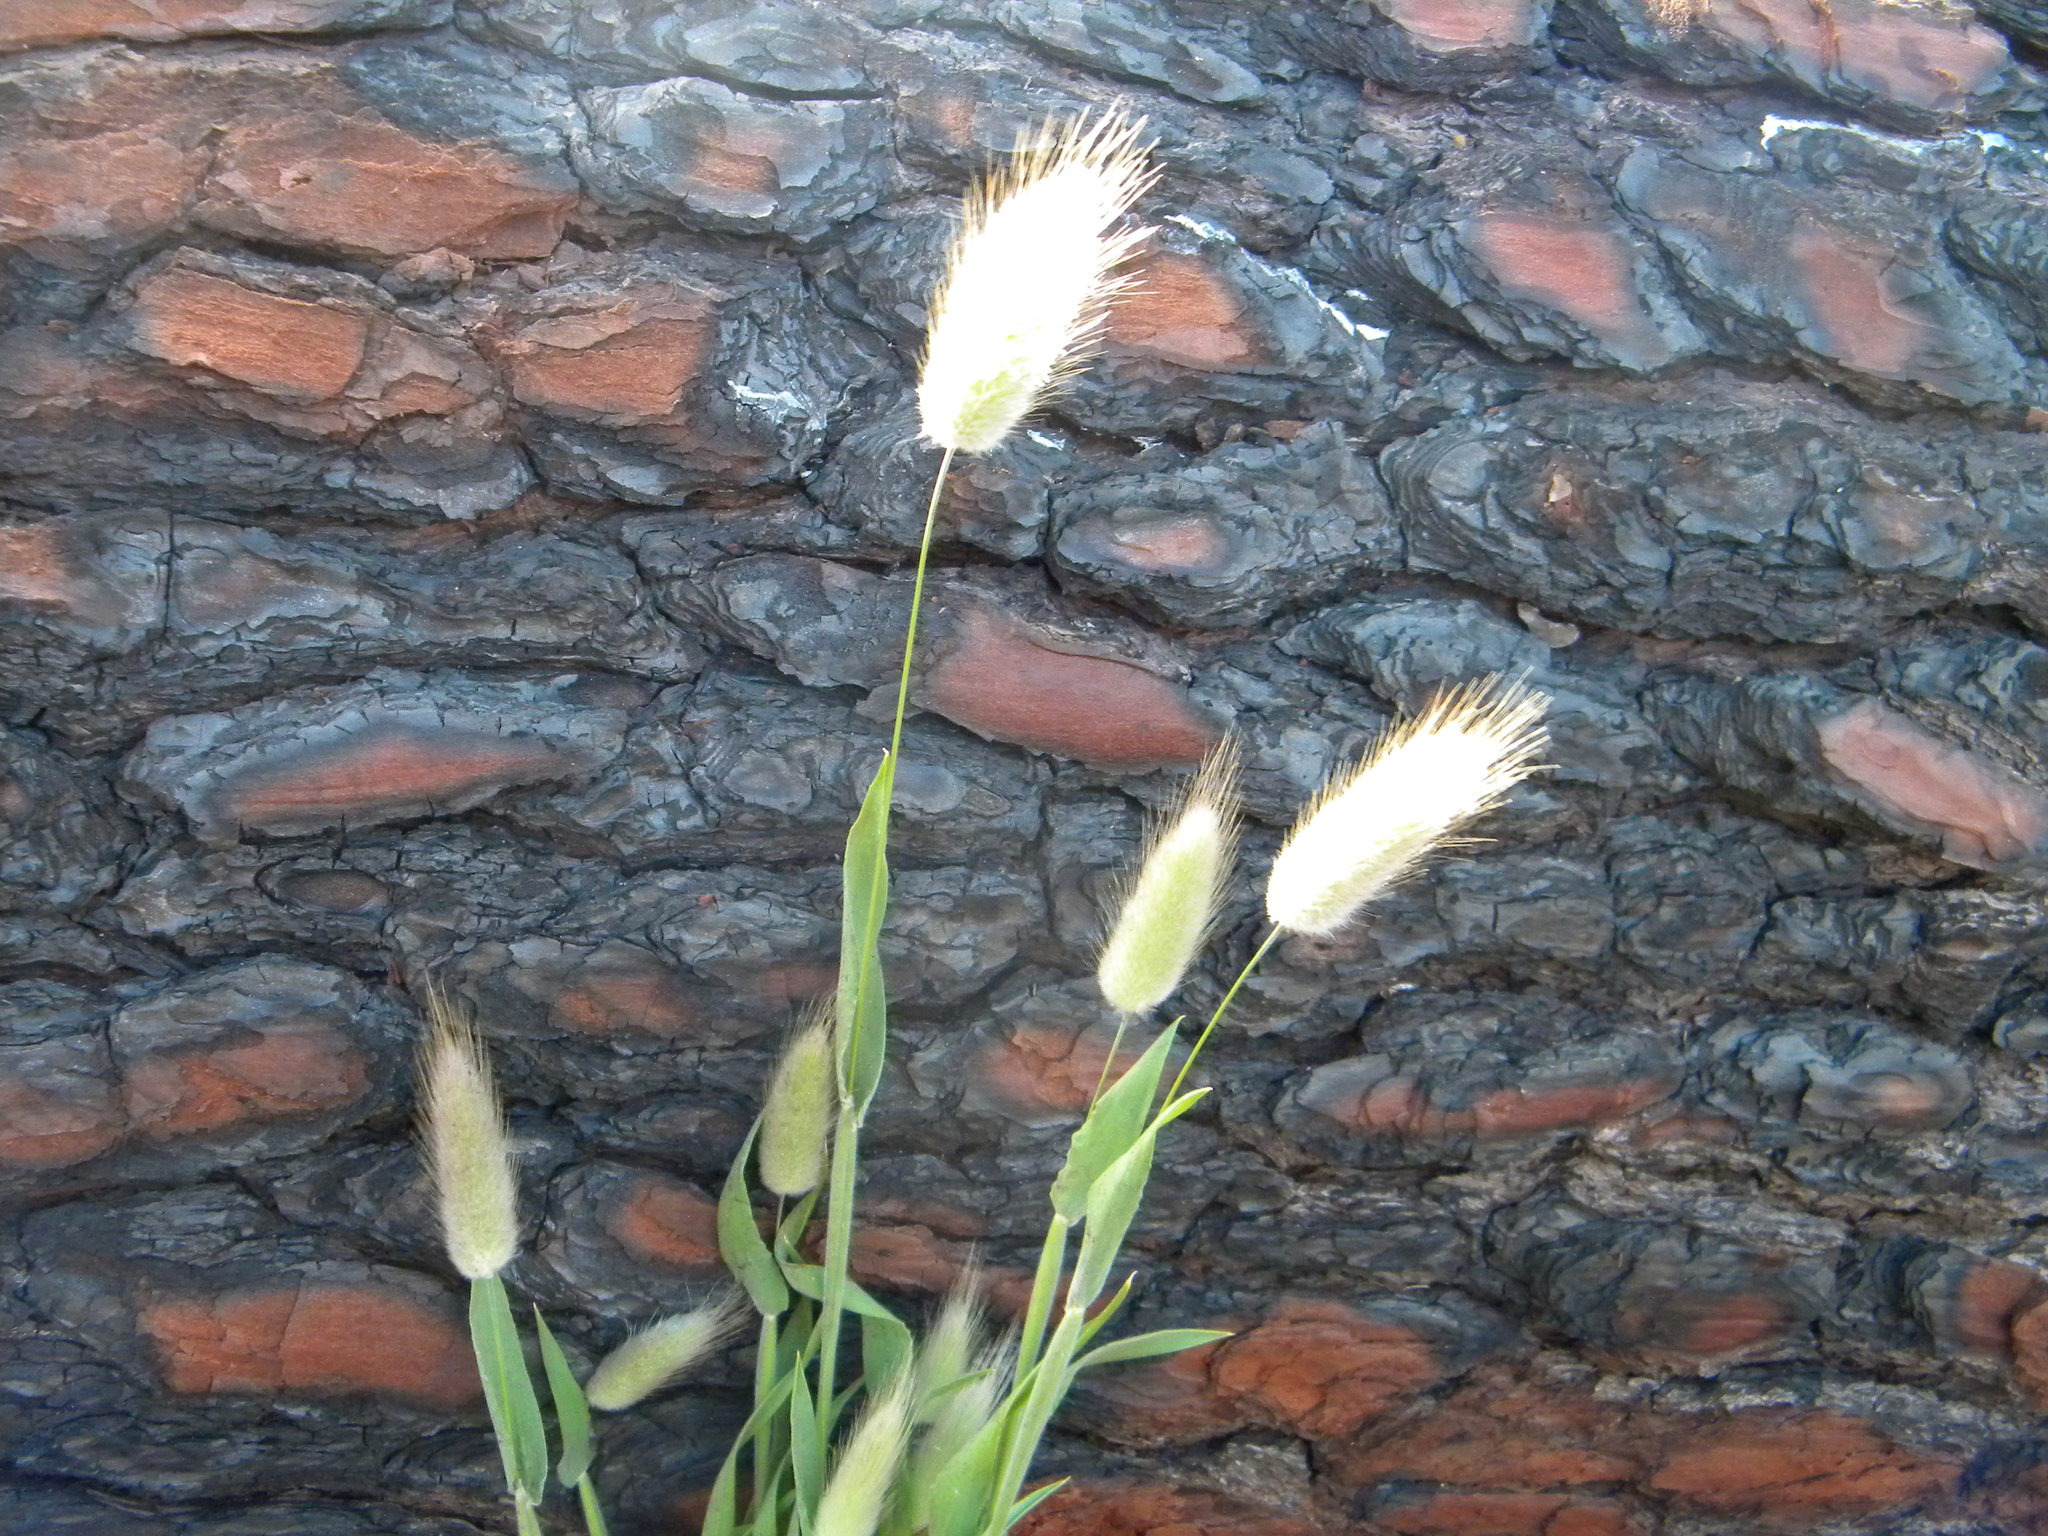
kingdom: Plantae
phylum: Tracheophyta
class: Liliopsida
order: Poales
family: Poaceae
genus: Lagurus
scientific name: Lagurus ovatus
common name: Hare's-tail
